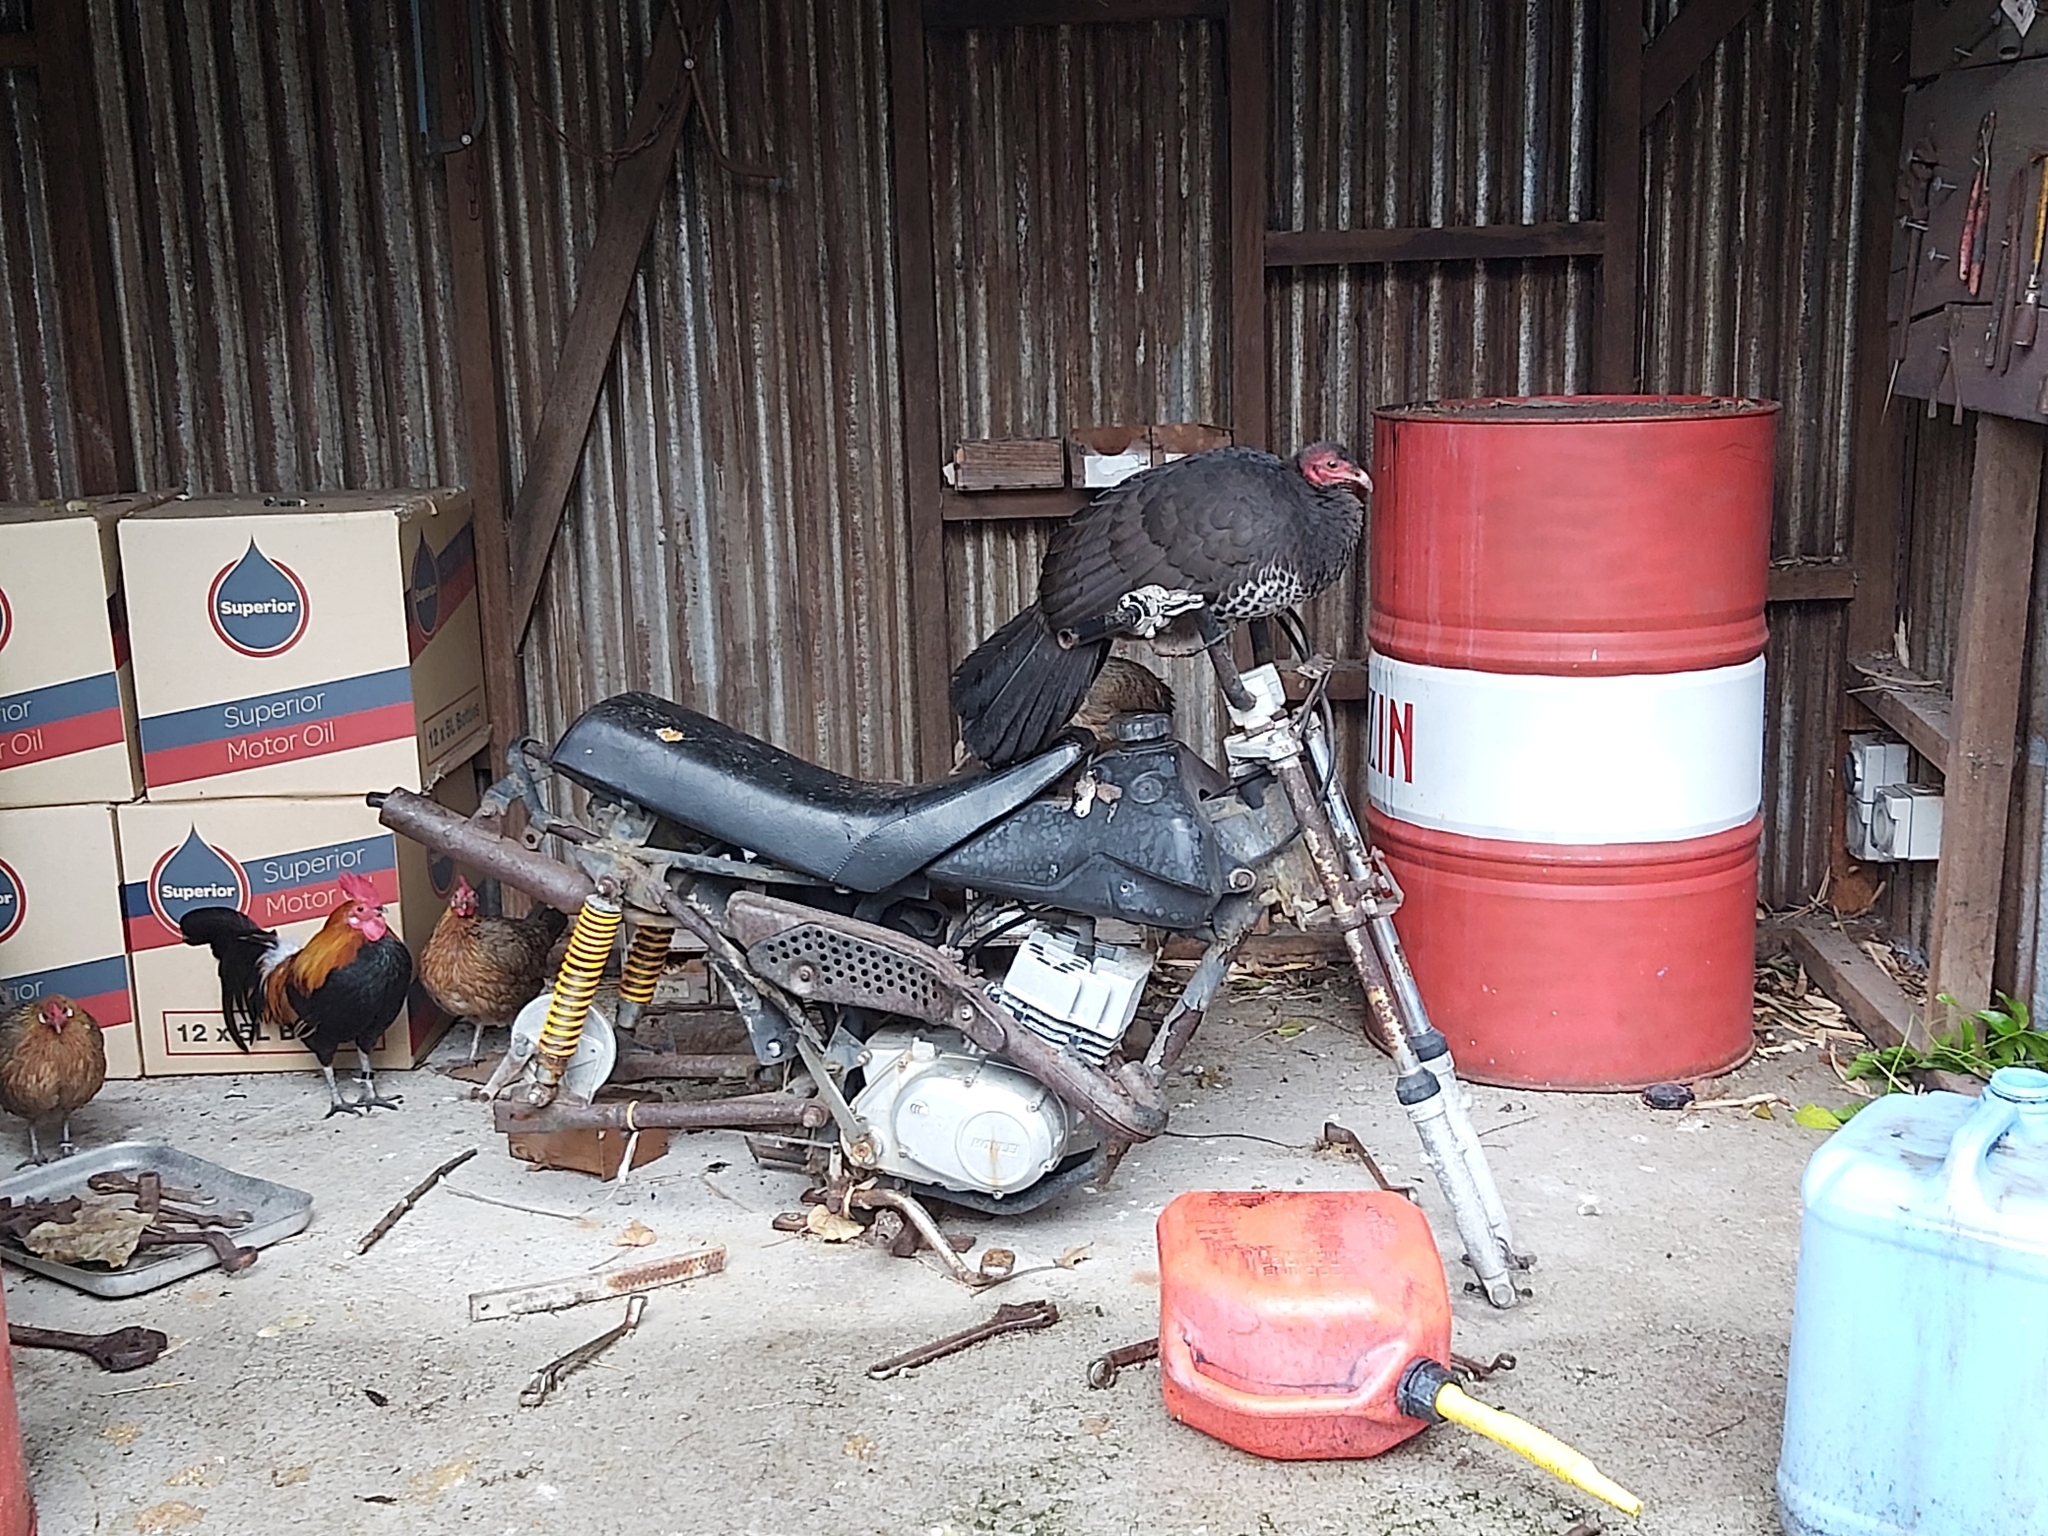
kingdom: Animalia
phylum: Chordata
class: Aves
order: Galliformes
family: Megapodiidae
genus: Alectura
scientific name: Alectura lathami
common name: Australian brushturkey
